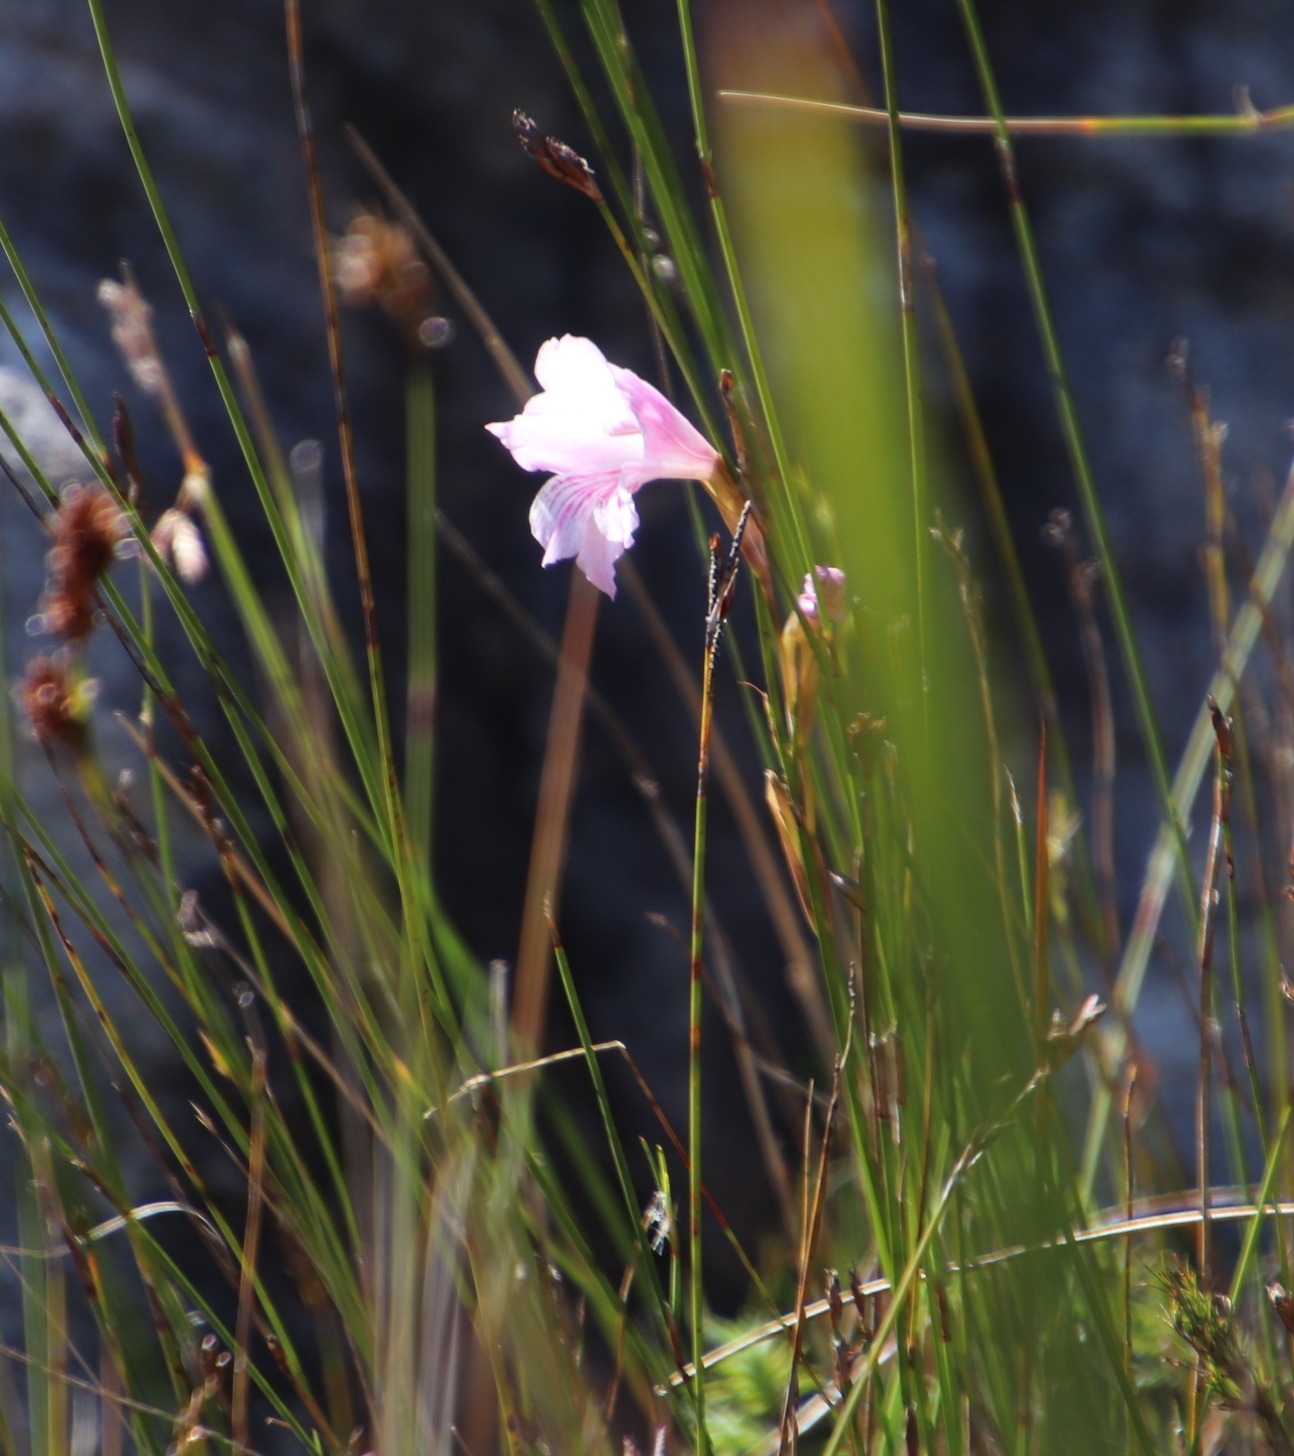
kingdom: Plantae
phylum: Tracheophyta
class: Liliopsida
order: Asparagales
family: Iridaceae
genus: Gladiolus
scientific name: Gladiolus hirsutus
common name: Small pink afrikaner
